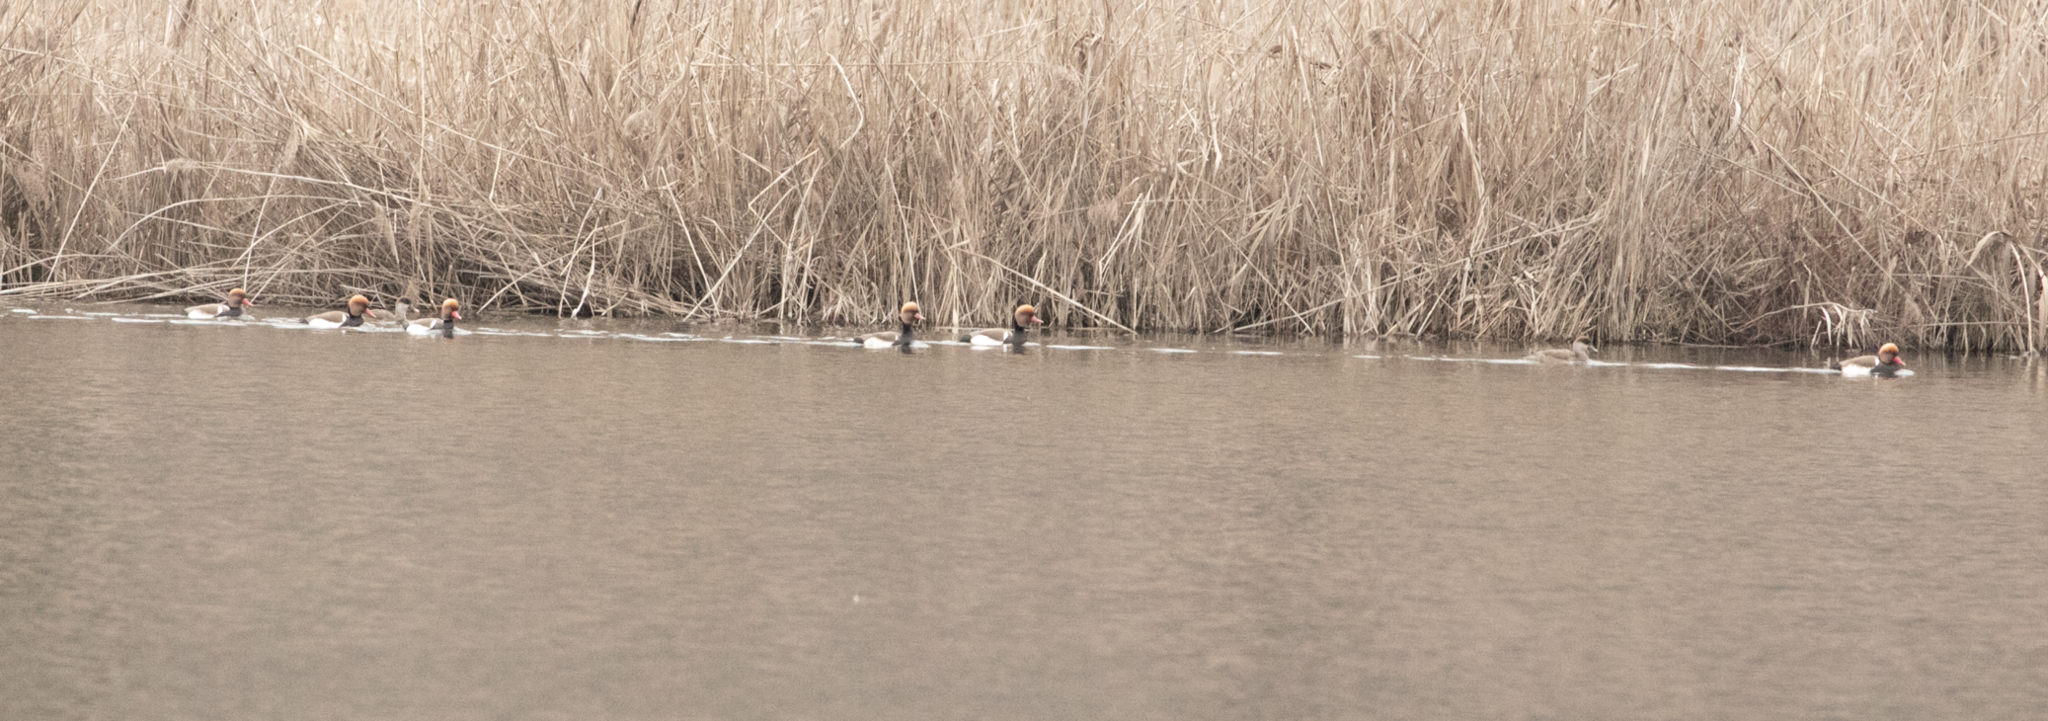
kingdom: Animalia
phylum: Chordata
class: Aves
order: Anseriformes
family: Anatidae
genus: Netta
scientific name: Netta rufina
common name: Red-crested pochard
